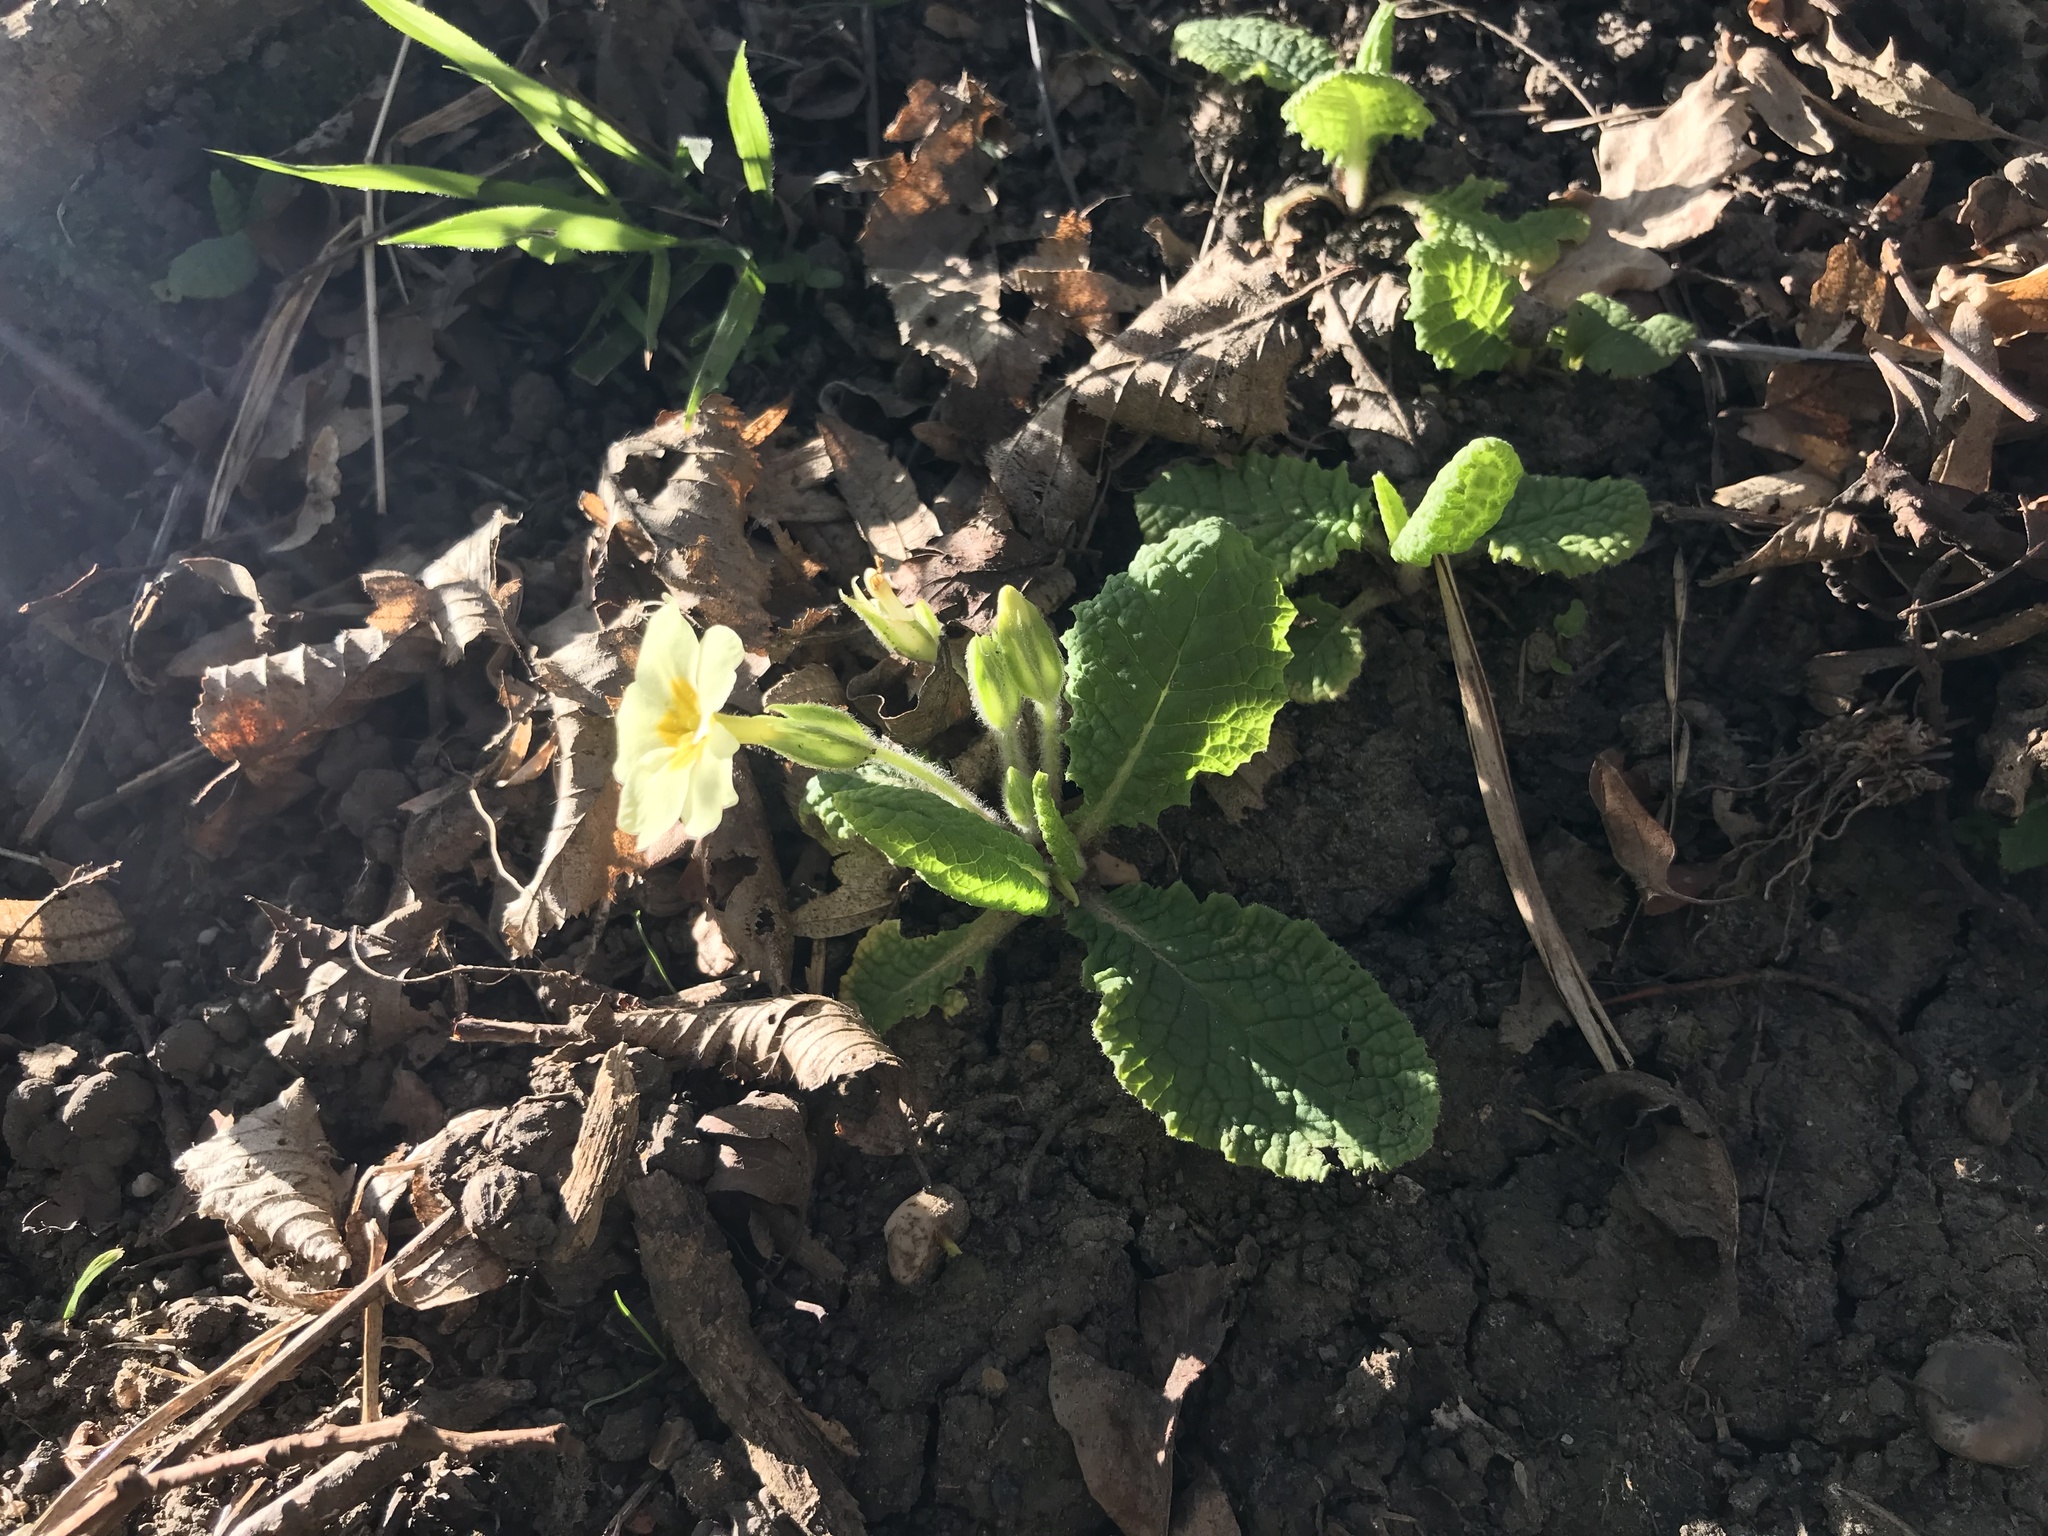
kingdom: Plantae
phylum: Tracheophyta
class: Magnoliopsida
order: Ericales
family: Primulaceae
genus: Primula
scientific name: Primula vulgaris
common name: Primrose
